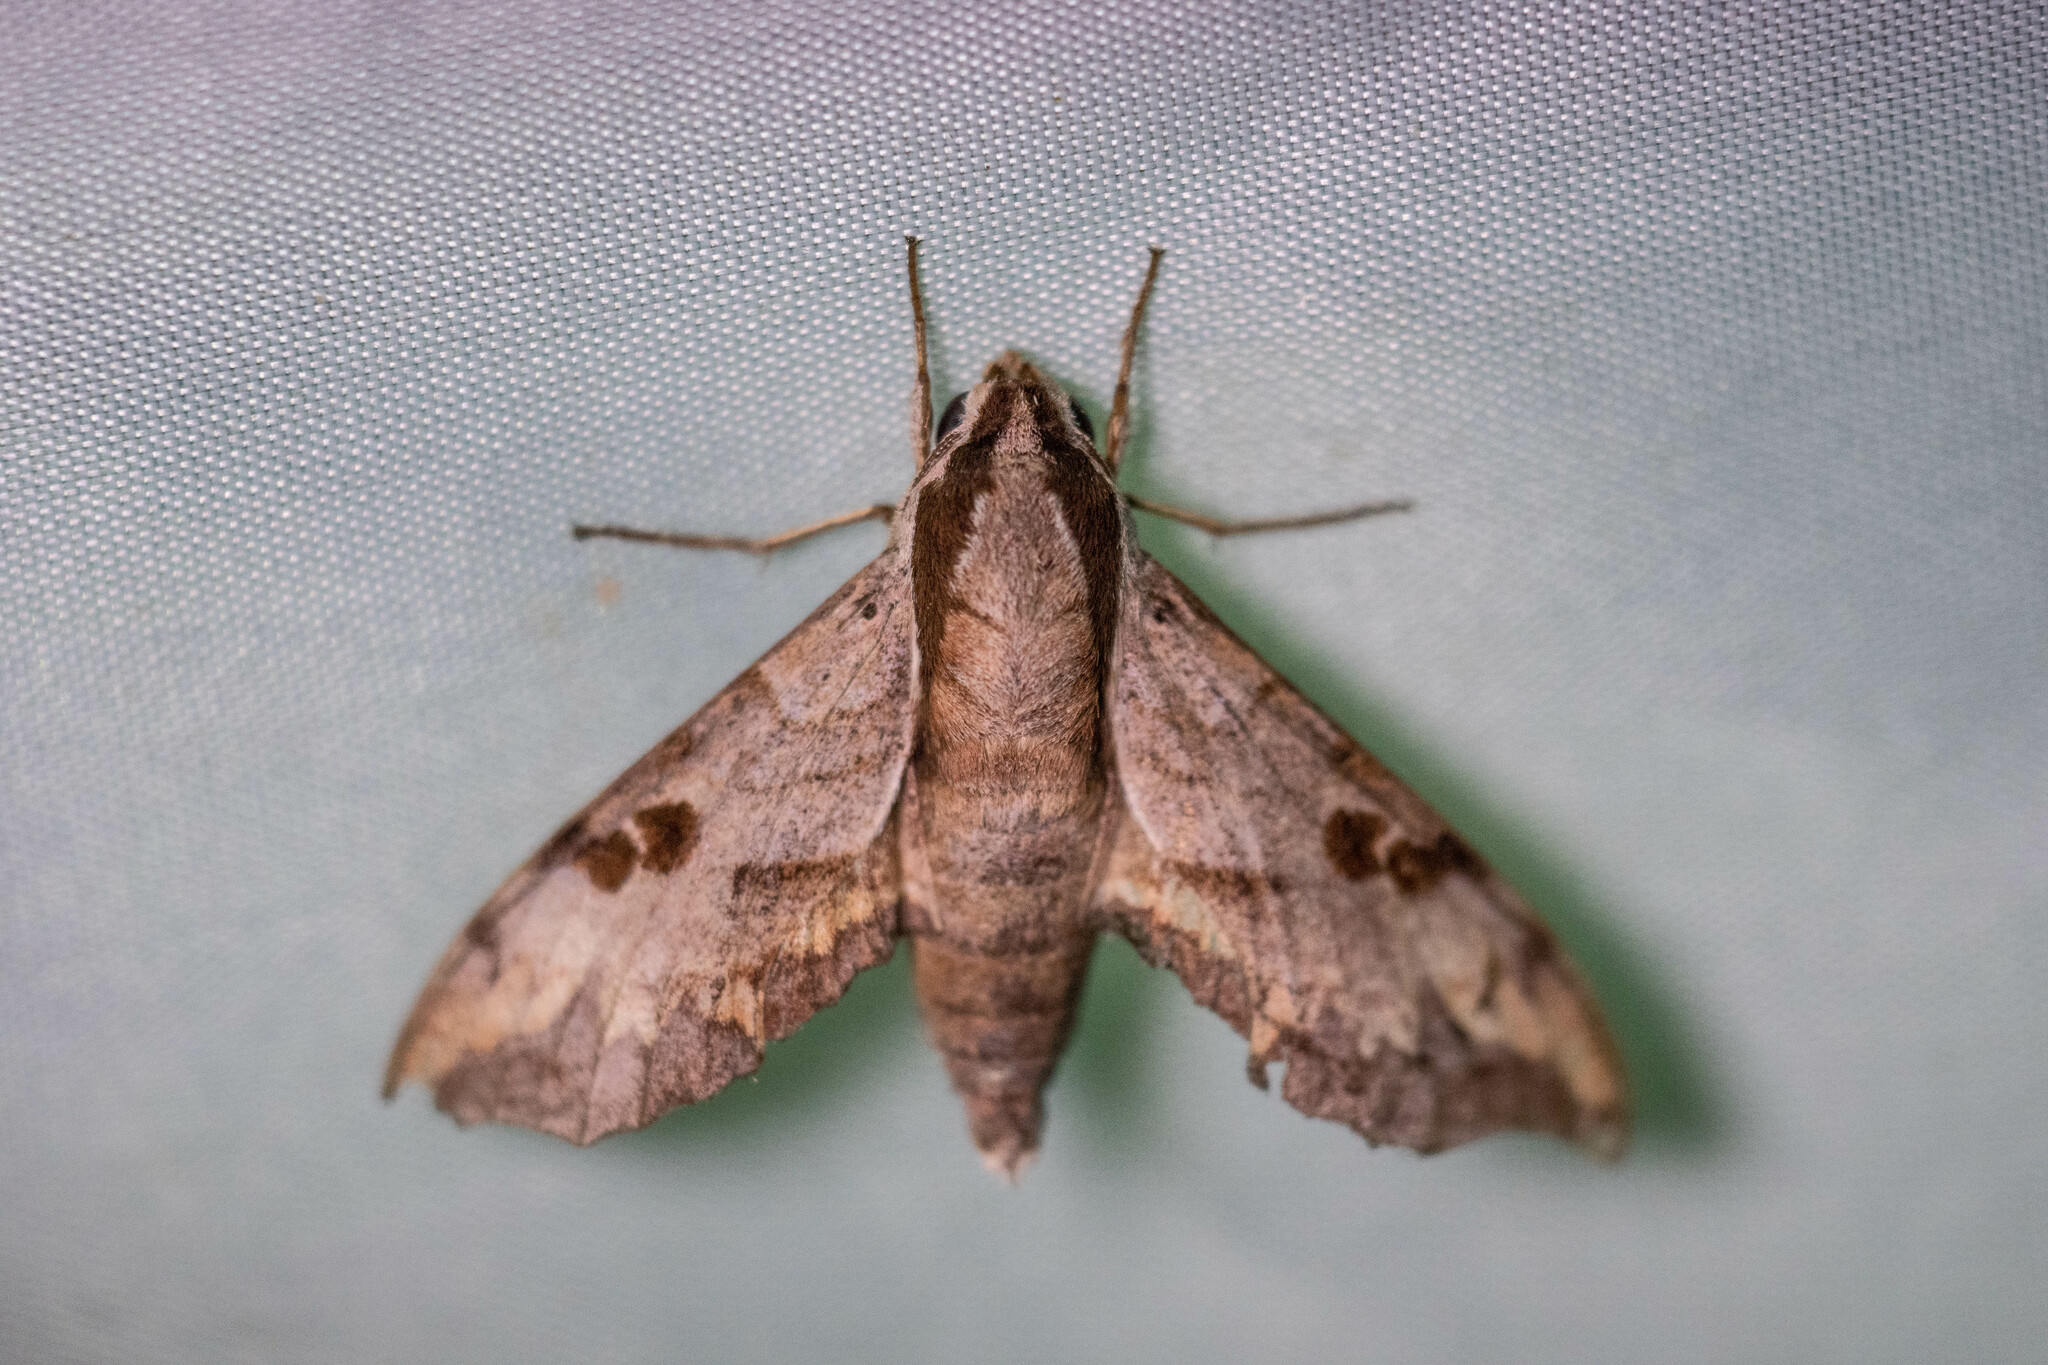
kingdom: Animalia
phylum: Arthropoda
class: Insecta
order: Lepidoptera
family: Sphingidae
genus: Enpinanga
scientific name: Enpinanga assamensis
